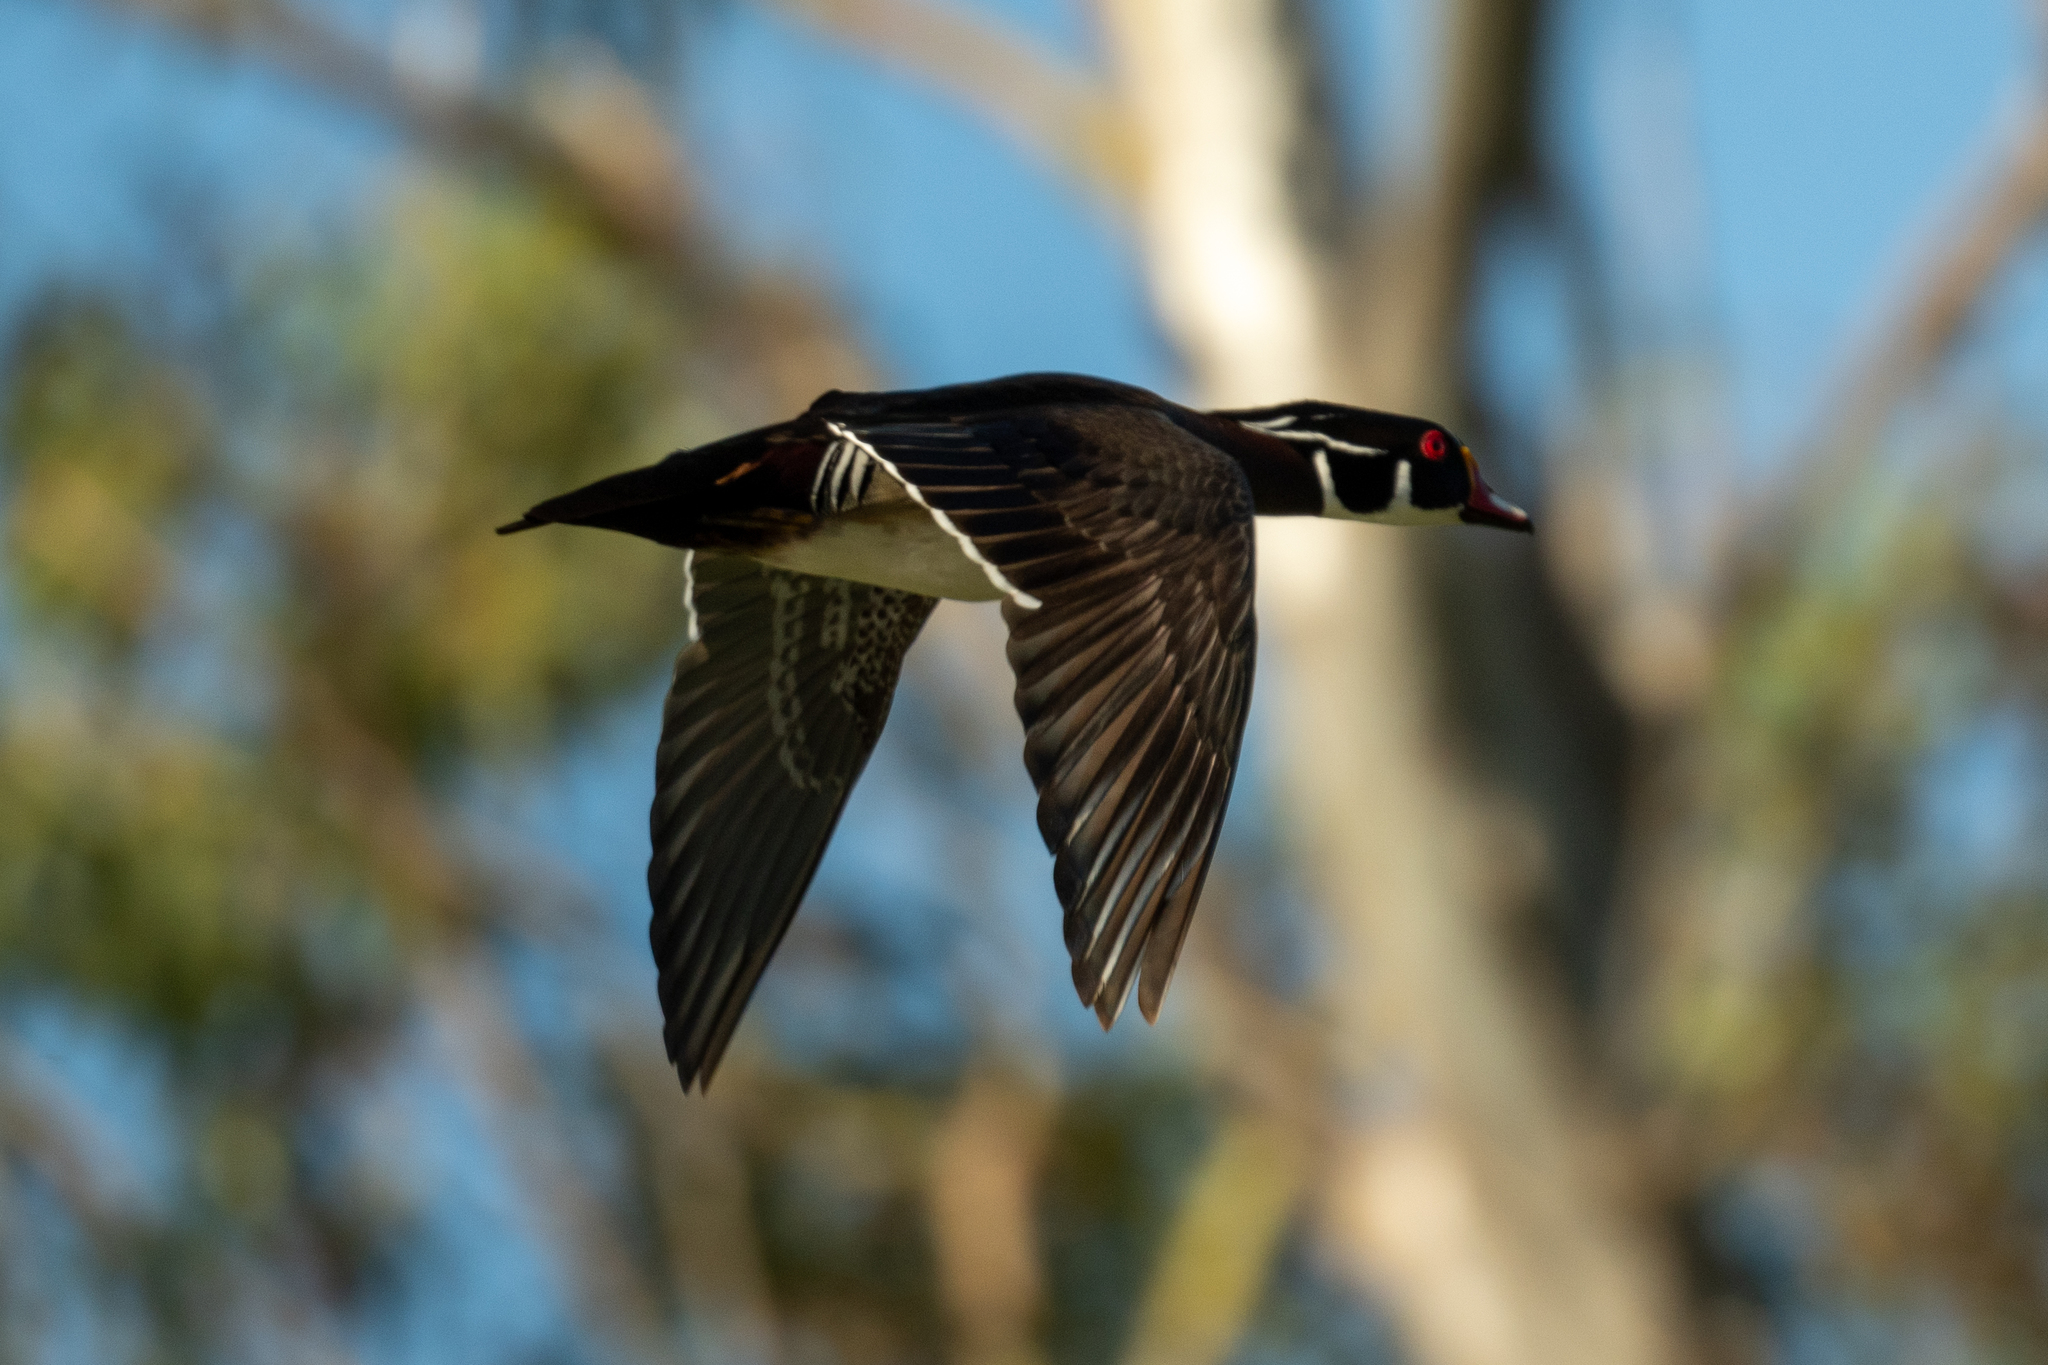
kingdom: Animalia
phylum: Chordata
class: Aves
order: Anseriformes
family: Anatidae
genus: Aix
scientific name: Aix sponsa
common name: Wood duck
